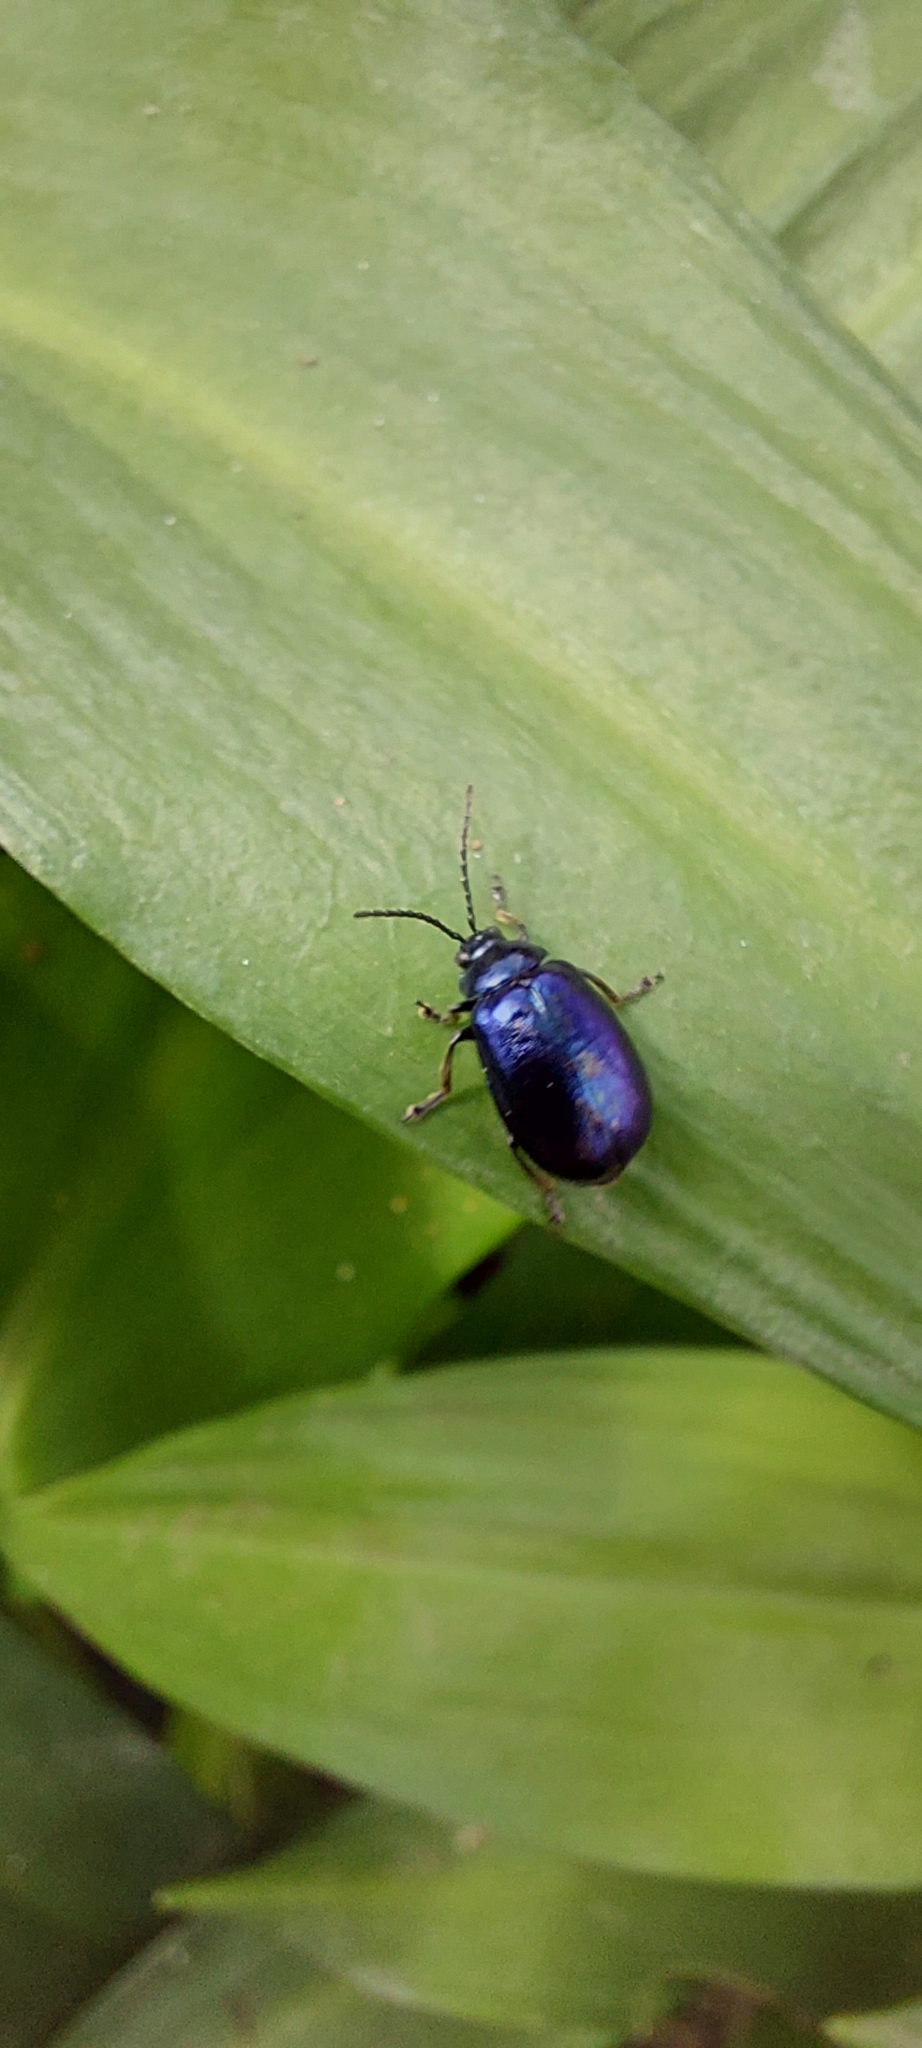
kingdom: Animalia
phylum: Arthropoda
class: Insecta
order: Coleoptera
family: Chrysomelidae
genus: Agelastica
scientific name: Agelastica alni
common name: Alder leaf beetle
